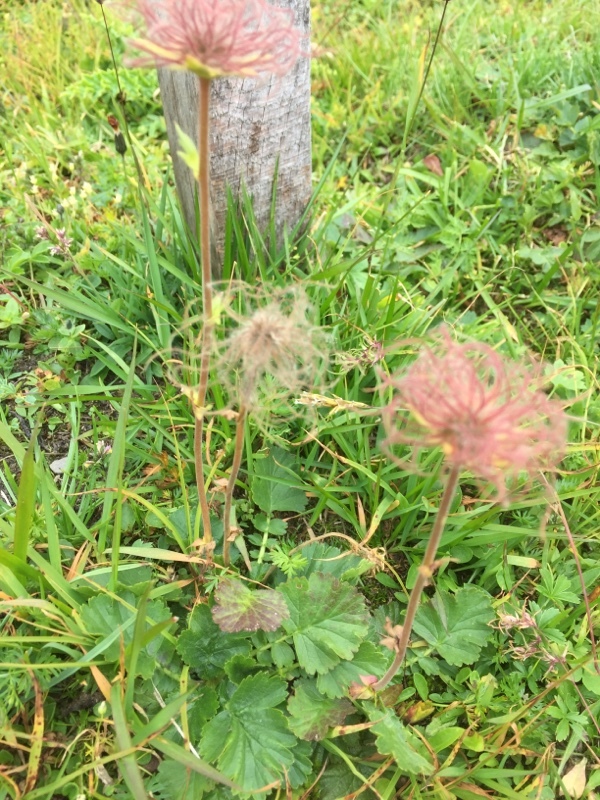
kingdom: Plantae
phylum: Tracheophyta
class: Magnoliopsida
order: Rosales
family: Rosaceae
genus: Geum
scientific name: Geum montanum
